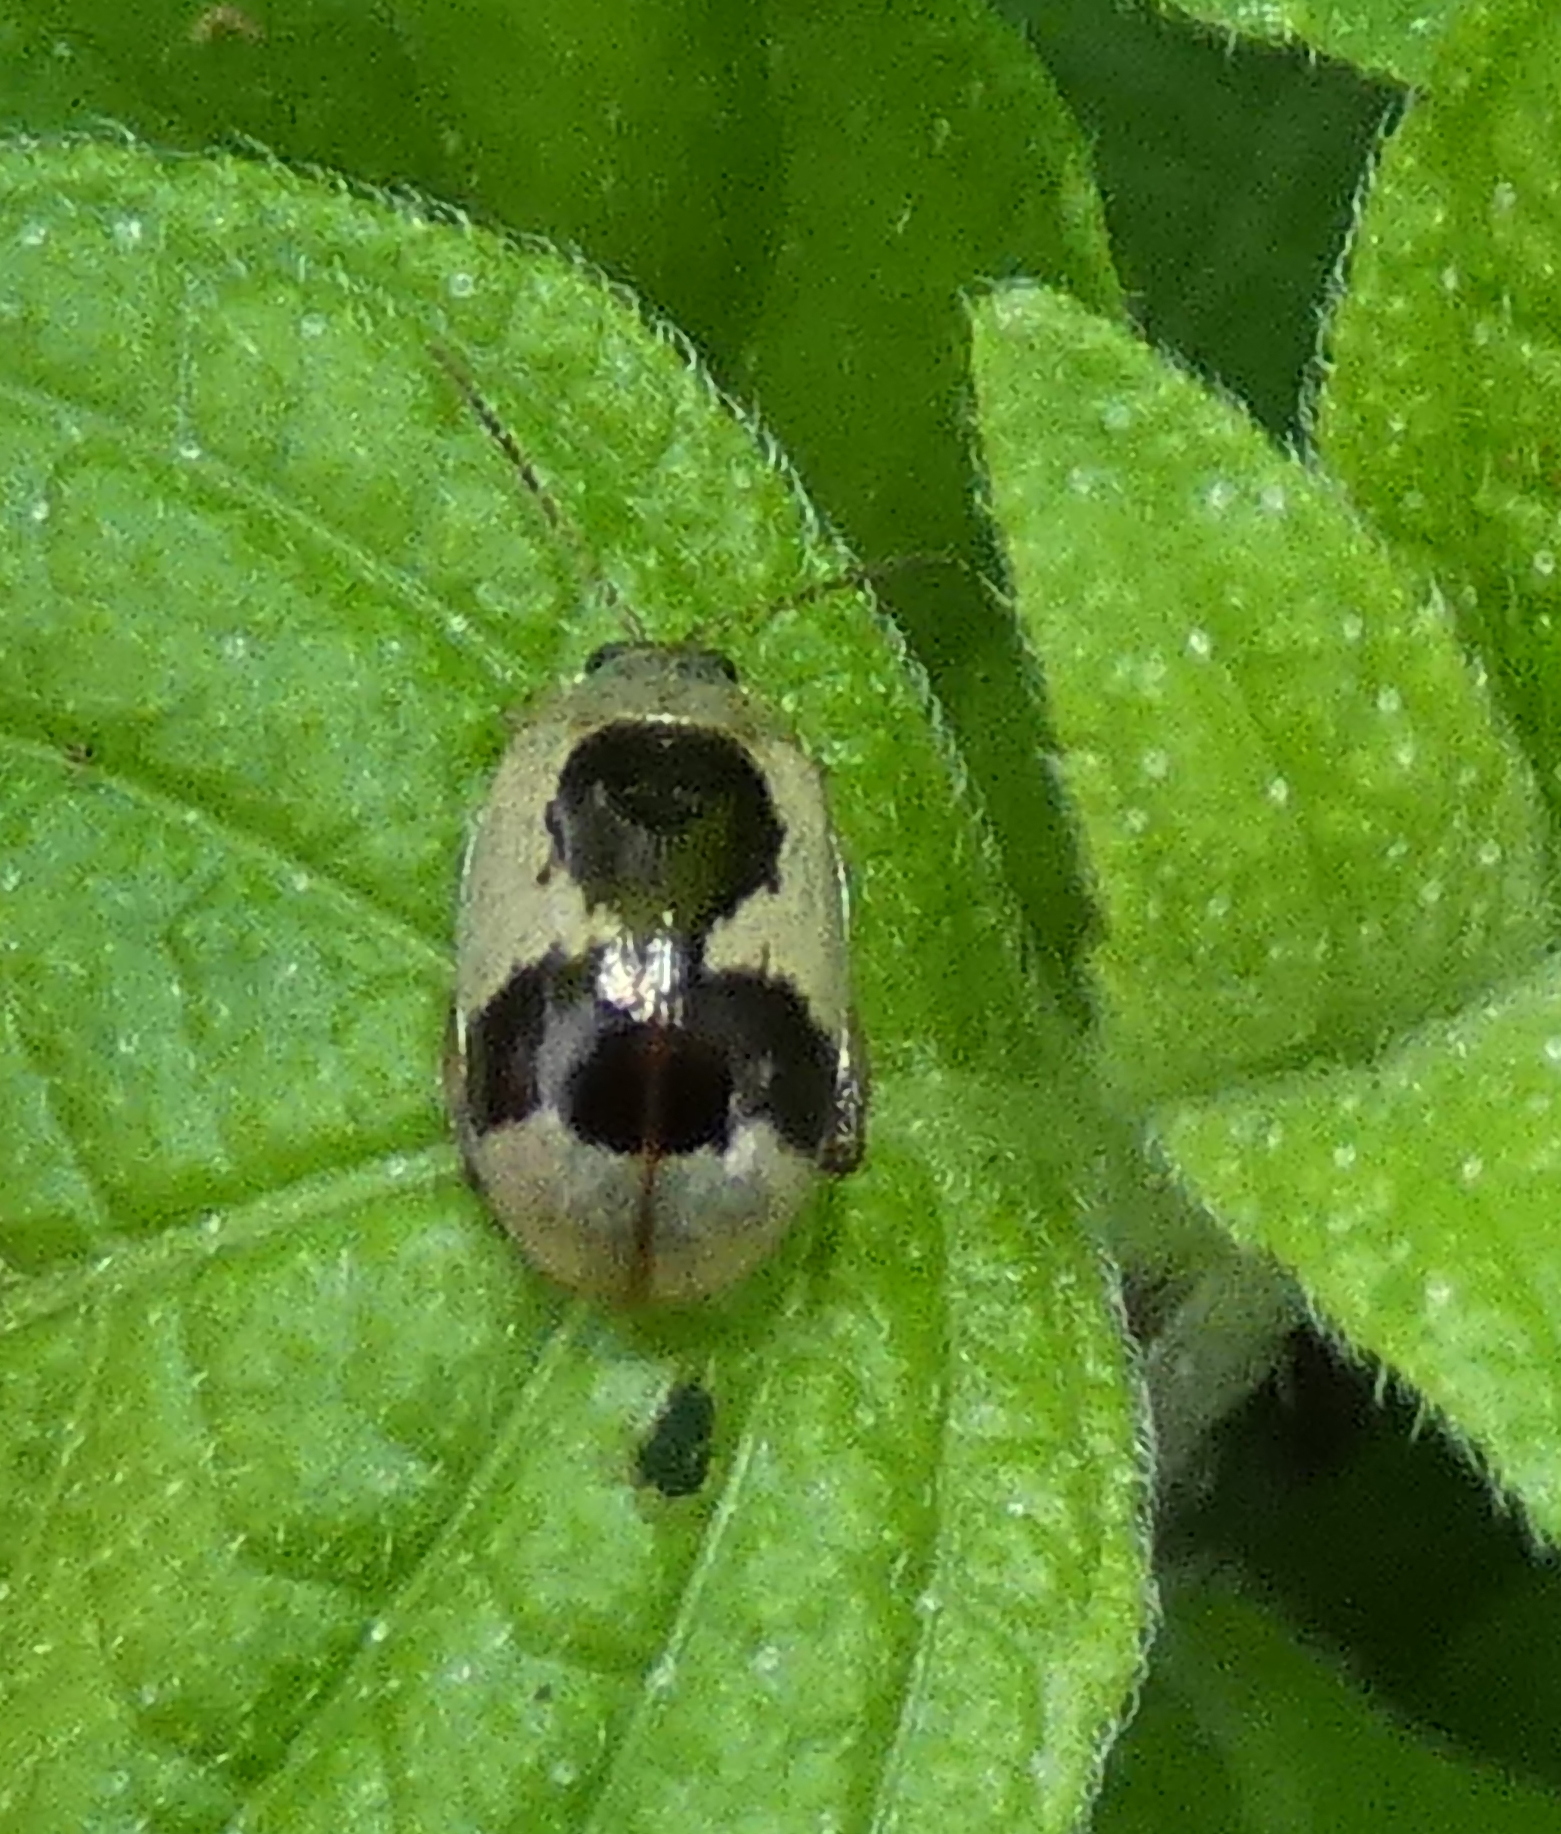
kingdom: Animalia
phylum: Arthropoda
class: Insecta
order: Coleoptera
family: Chrysomelidae
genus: Alagoasa
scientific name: Alagoasa
